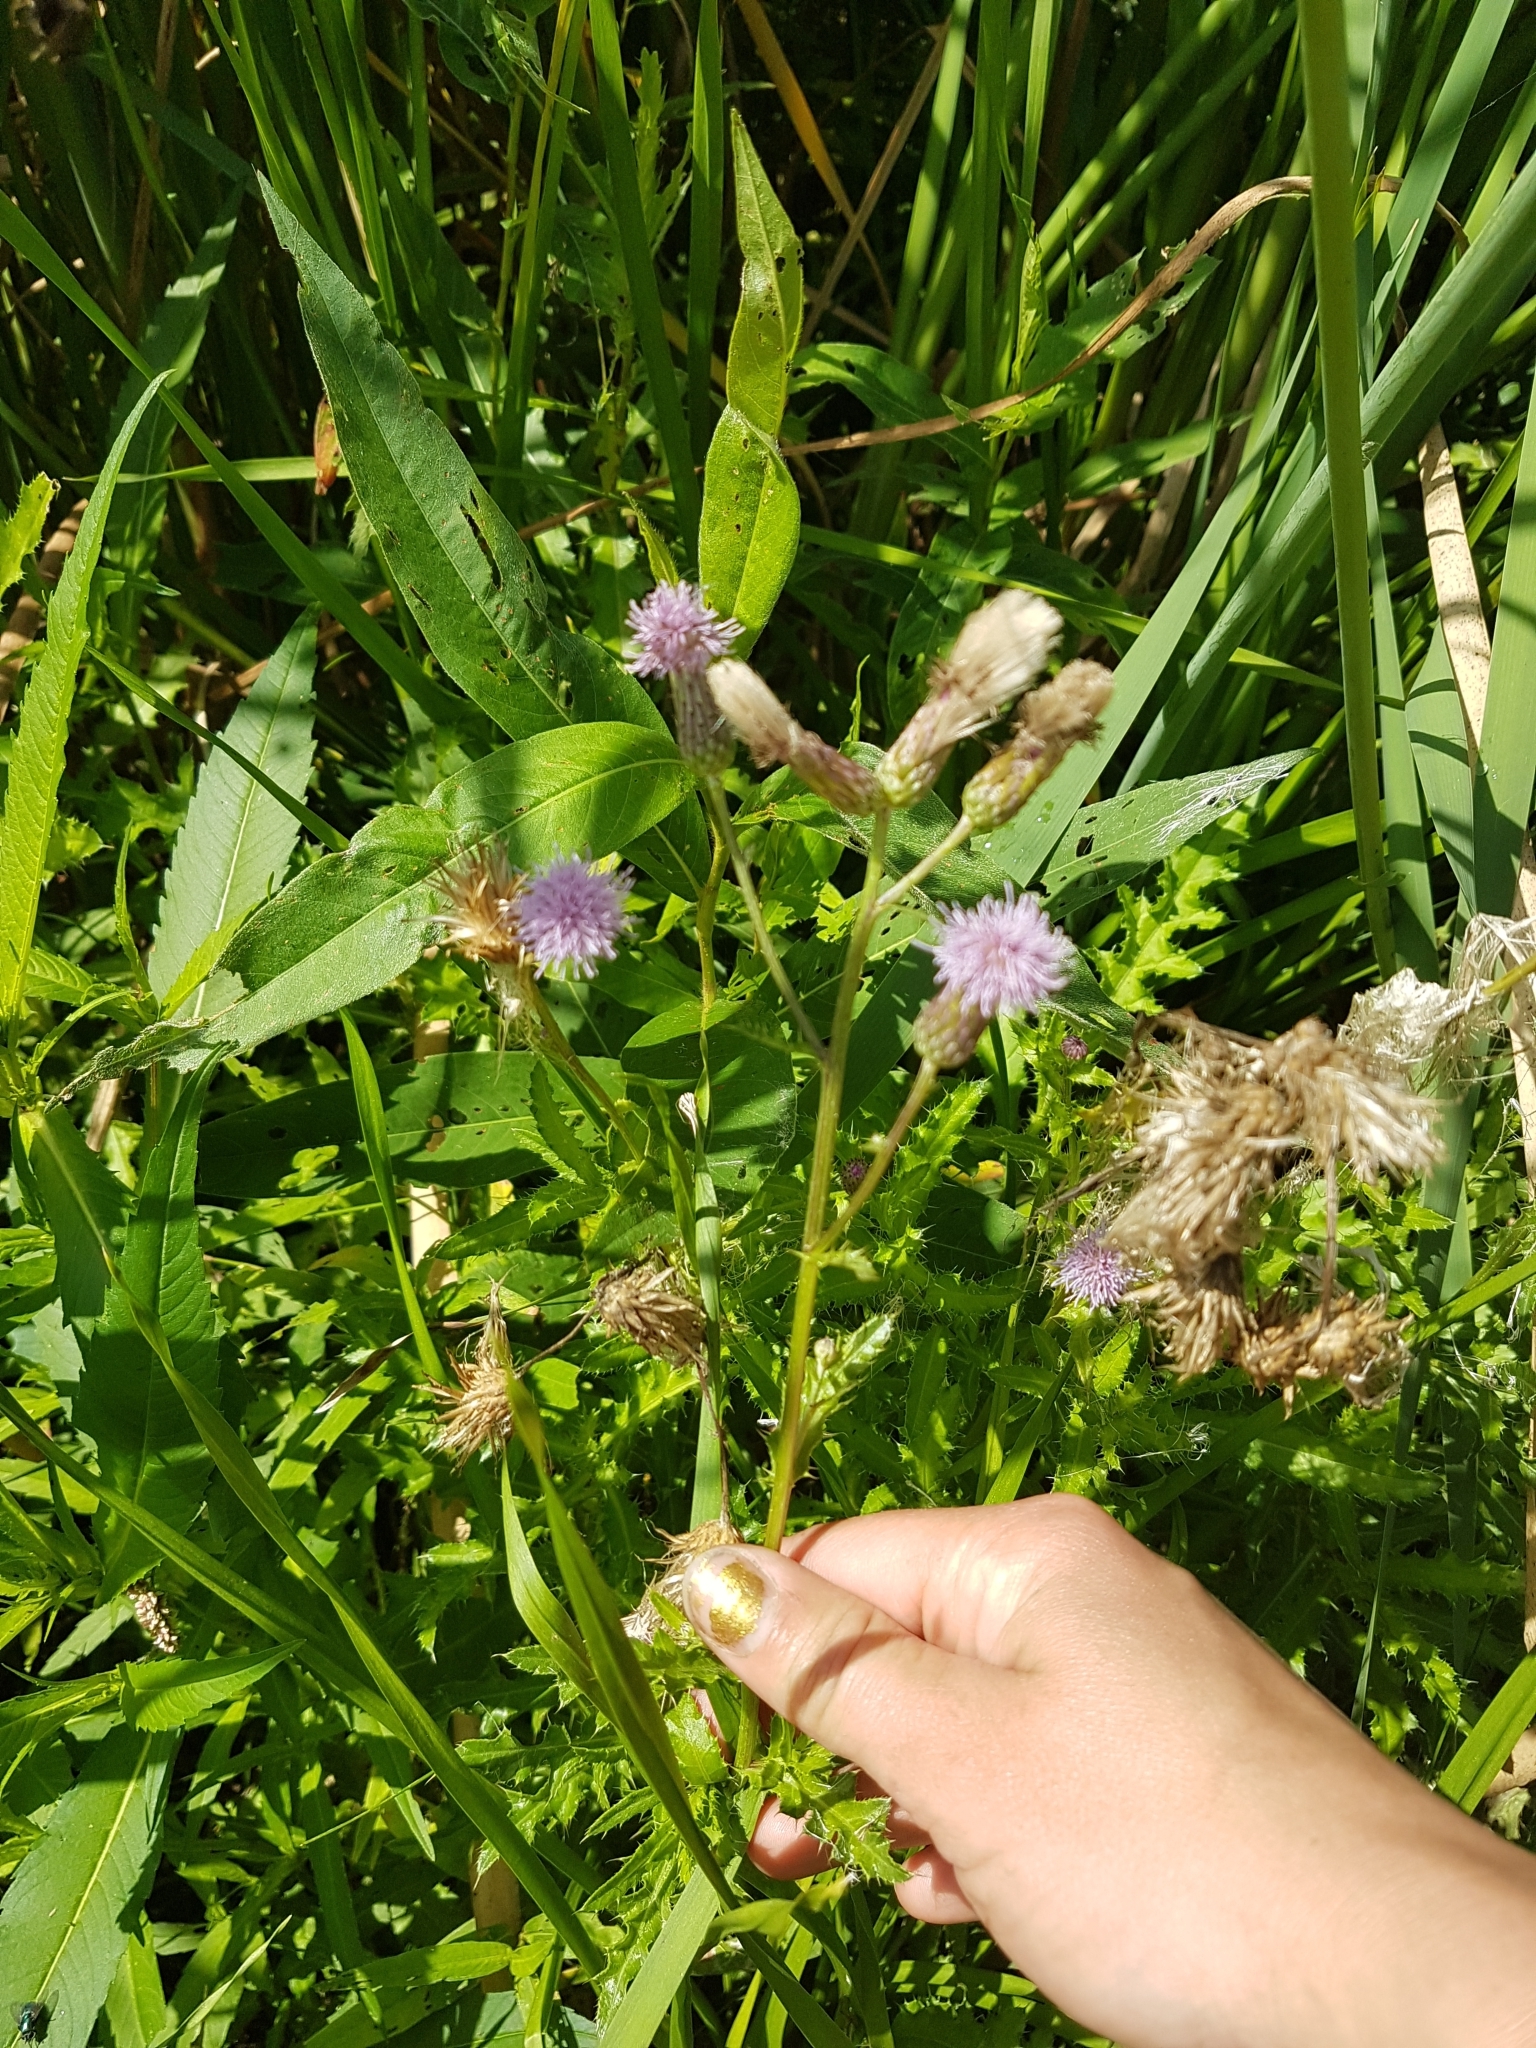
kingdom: Plantae
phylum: Tracheophyta
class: Magnoliopsida
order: Asterales
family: Asteraceae
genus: Cirsium
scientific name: Cirsium arvense
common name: Creeping thistle
